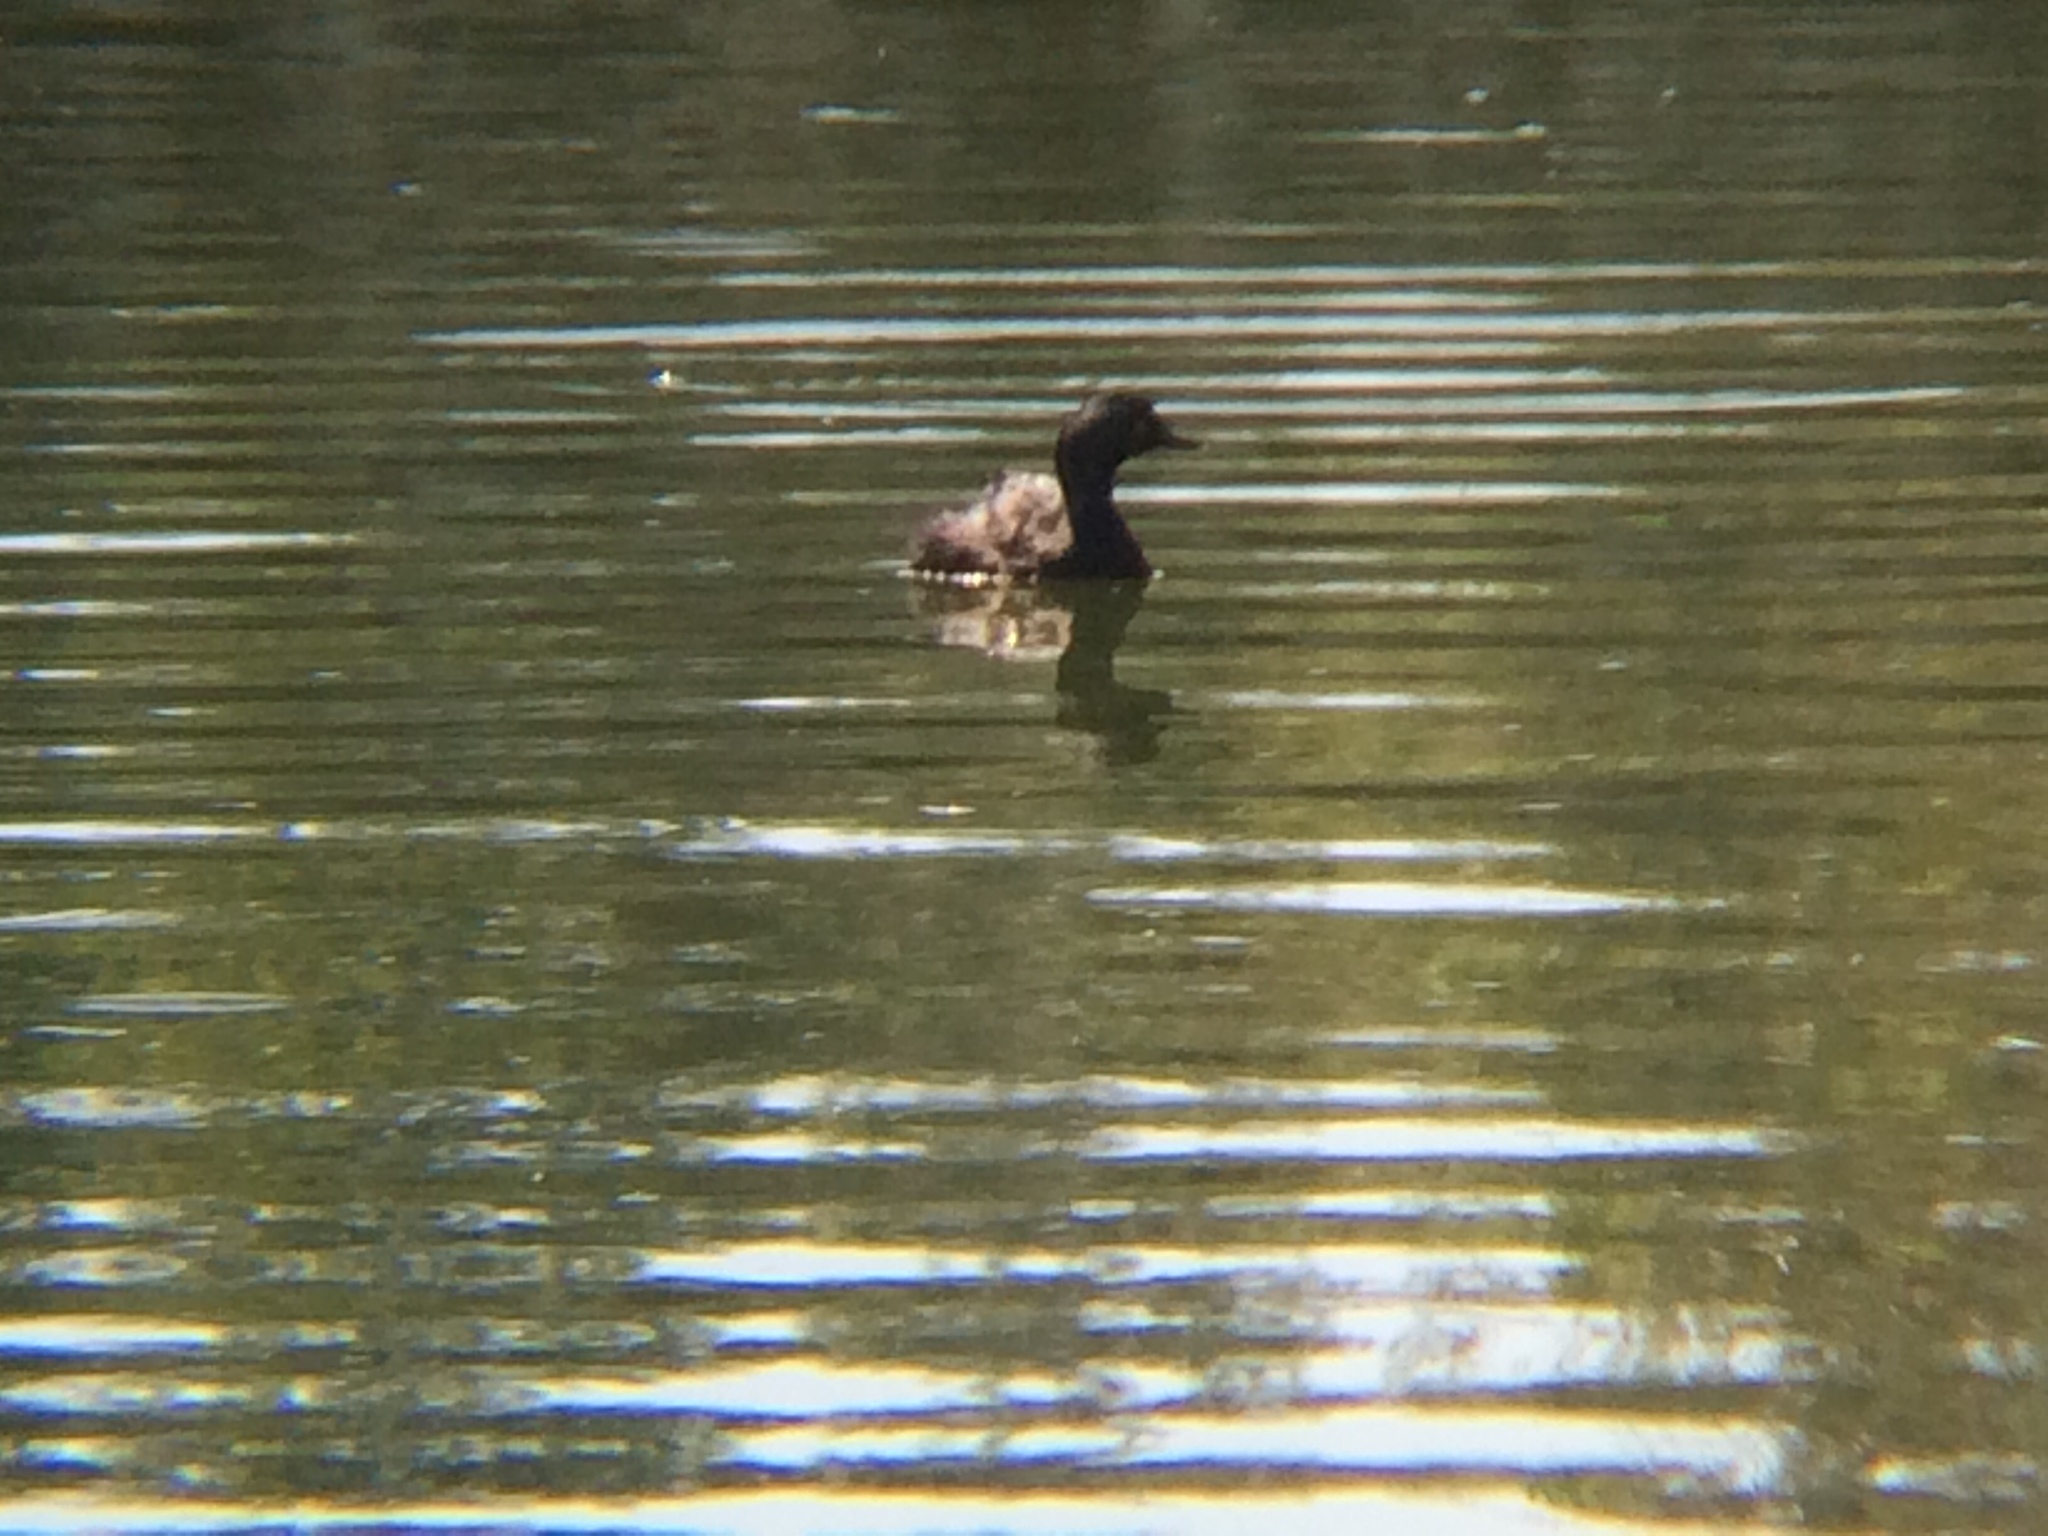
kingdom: Animalia
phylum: Chordata
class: Aves
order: Podicipediformes
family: Podicipedidae
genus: Tachybaptus
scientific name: Tachybaptus dominicus
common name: Least grebe
